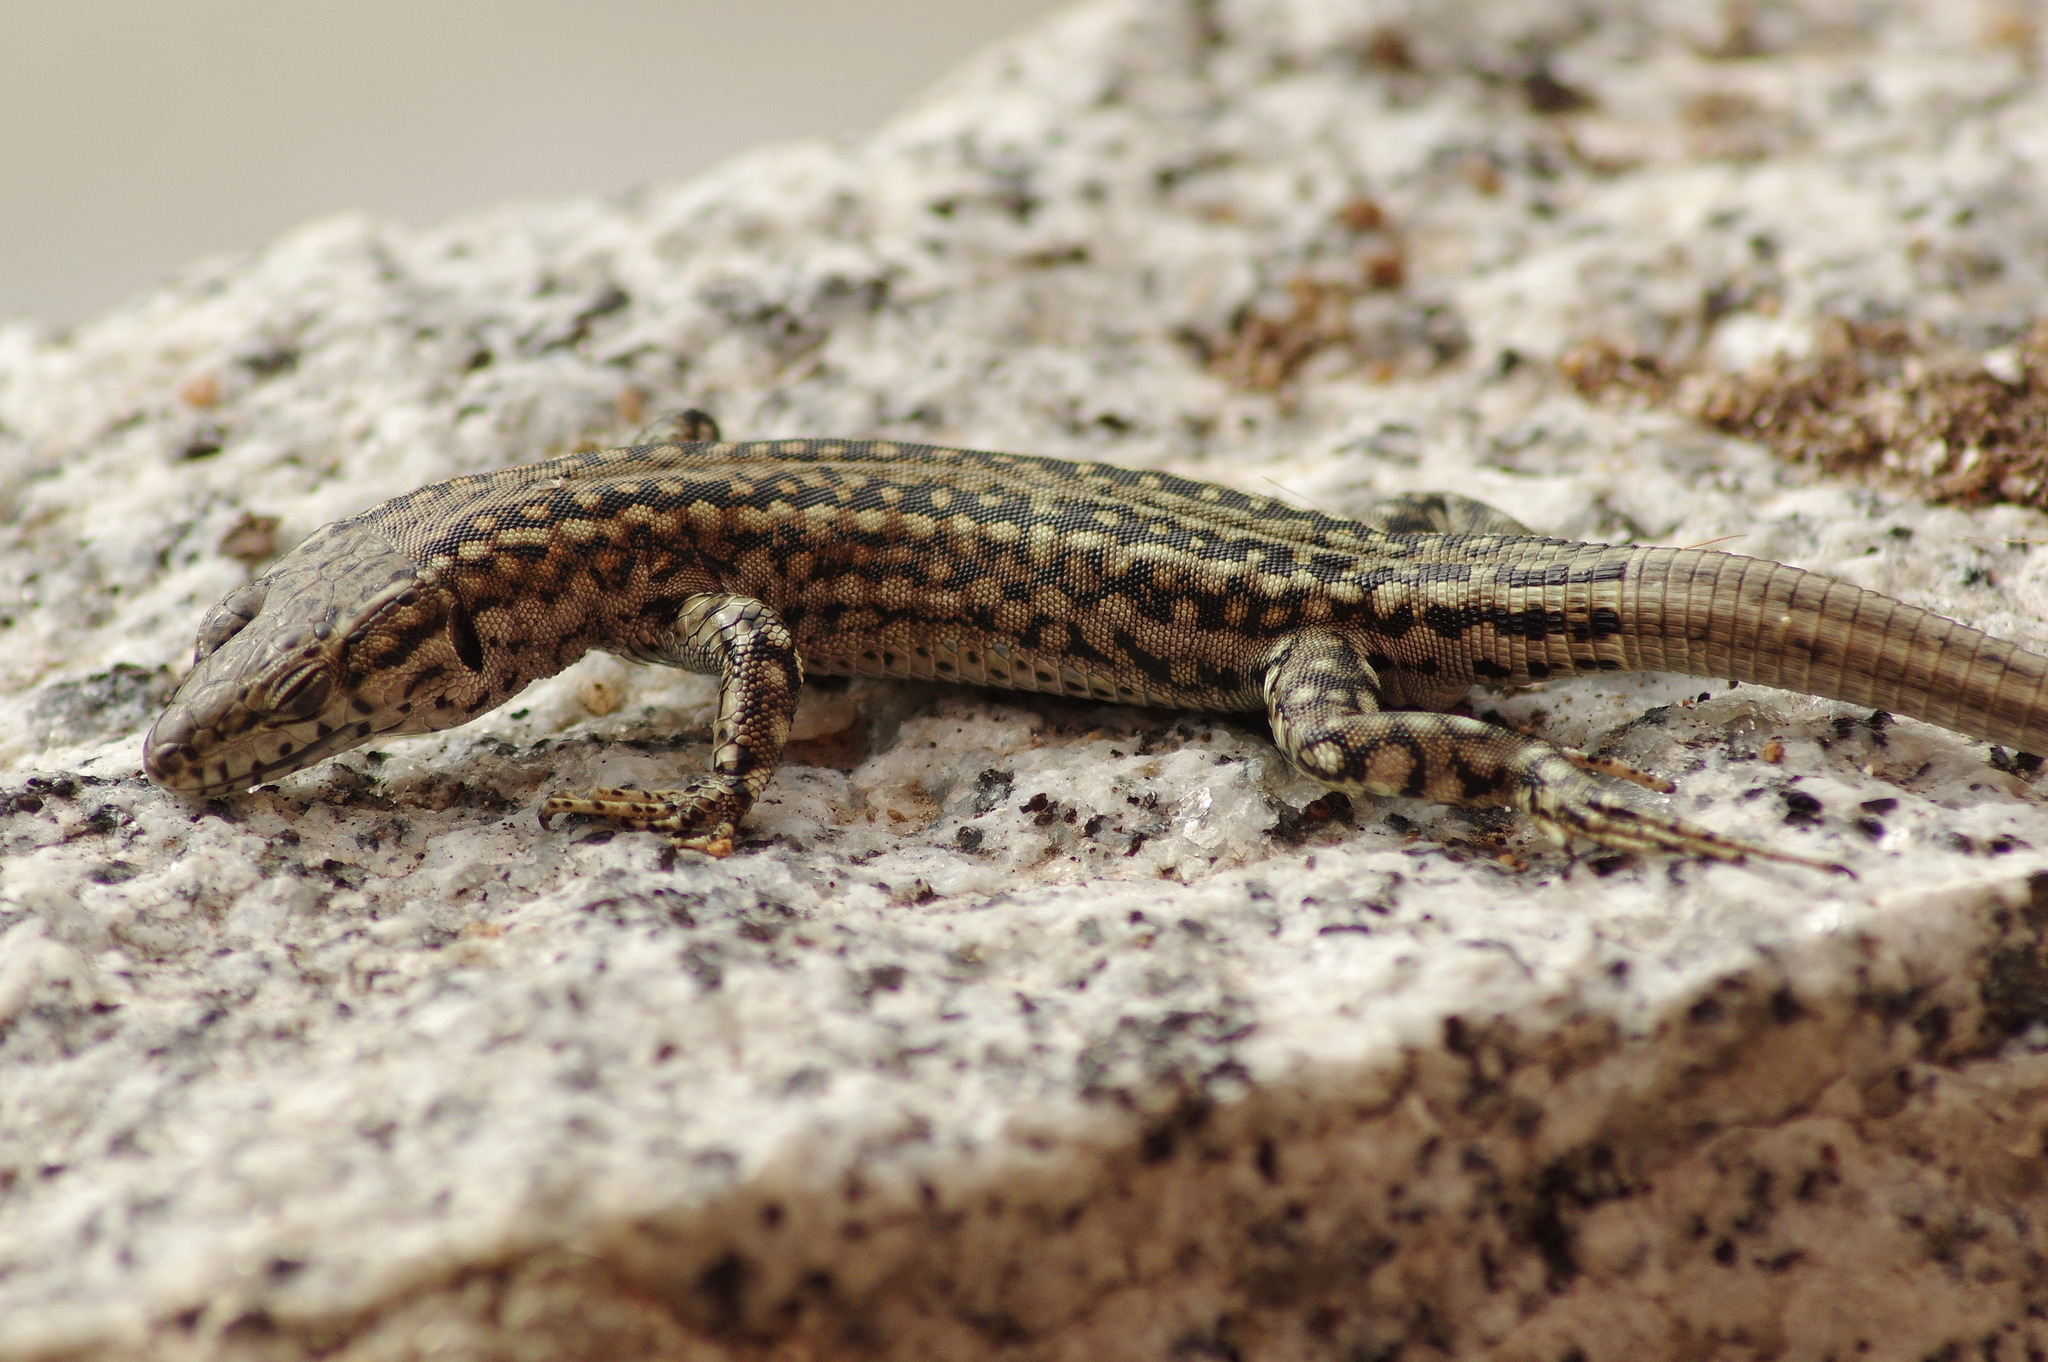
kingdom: Animalia
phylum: Chordata
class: Squamata
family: Lacertidae
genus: Podarcis
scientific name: Podarcis guadarramae
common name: Guadarrama wall lizard
